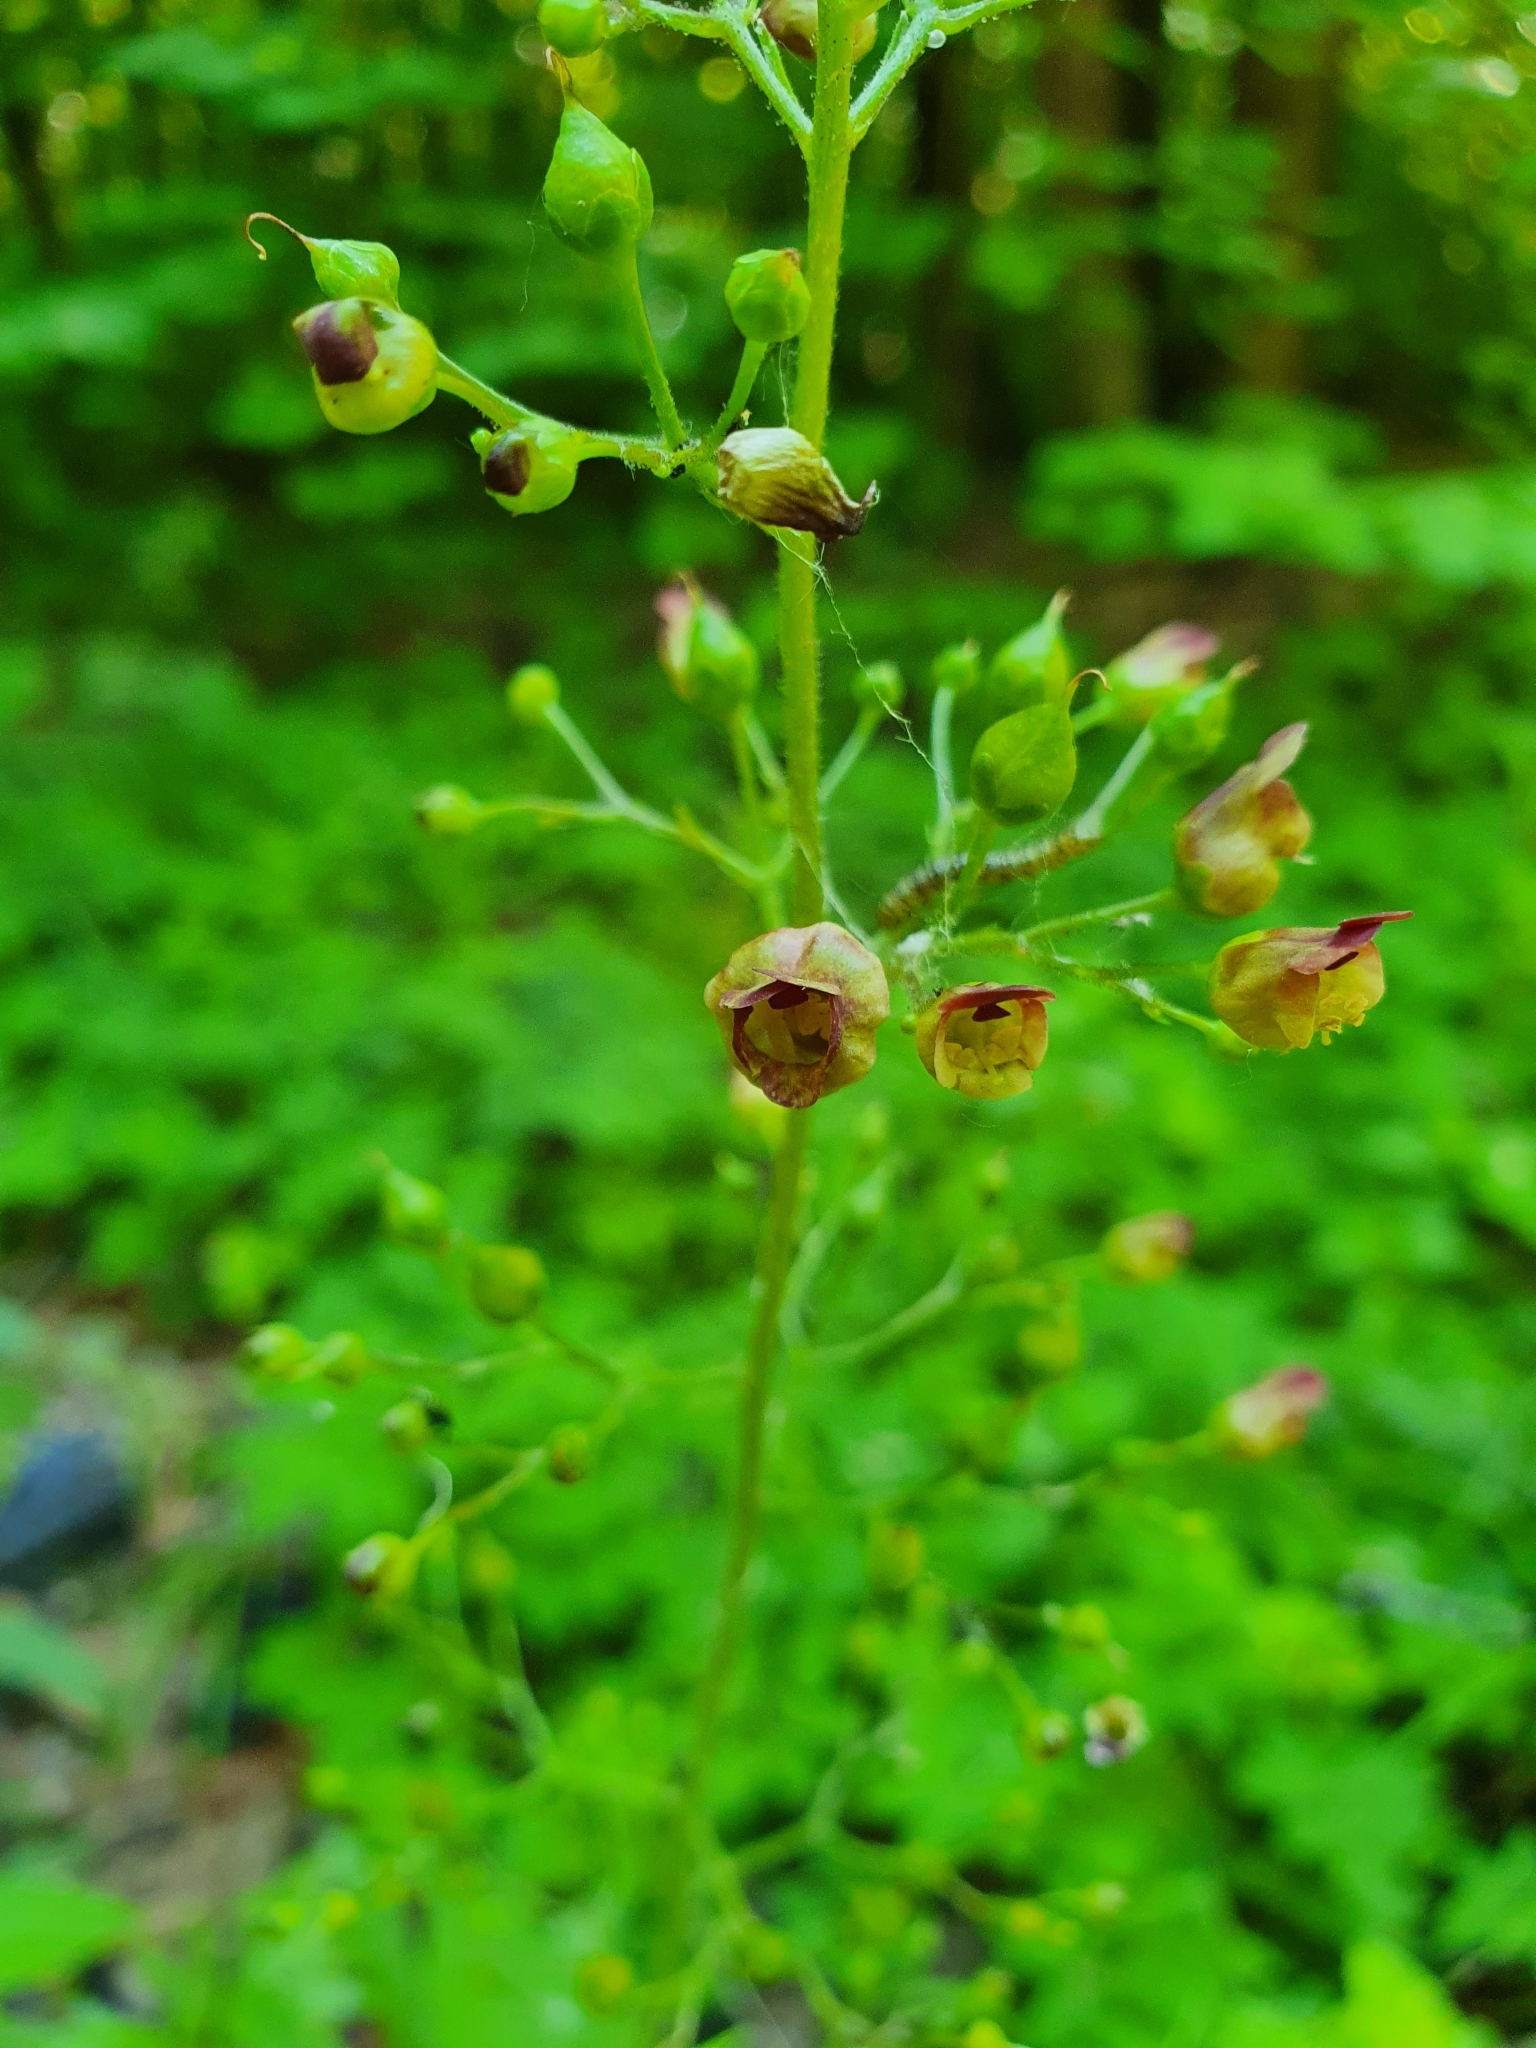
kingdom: Plantae
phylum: Tracheophyta
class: Magnoliopsida
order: Lamiales
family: Scrophulariaceae
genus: Scrophularia
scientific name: Scrophularia nodosa
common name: Common figwort
